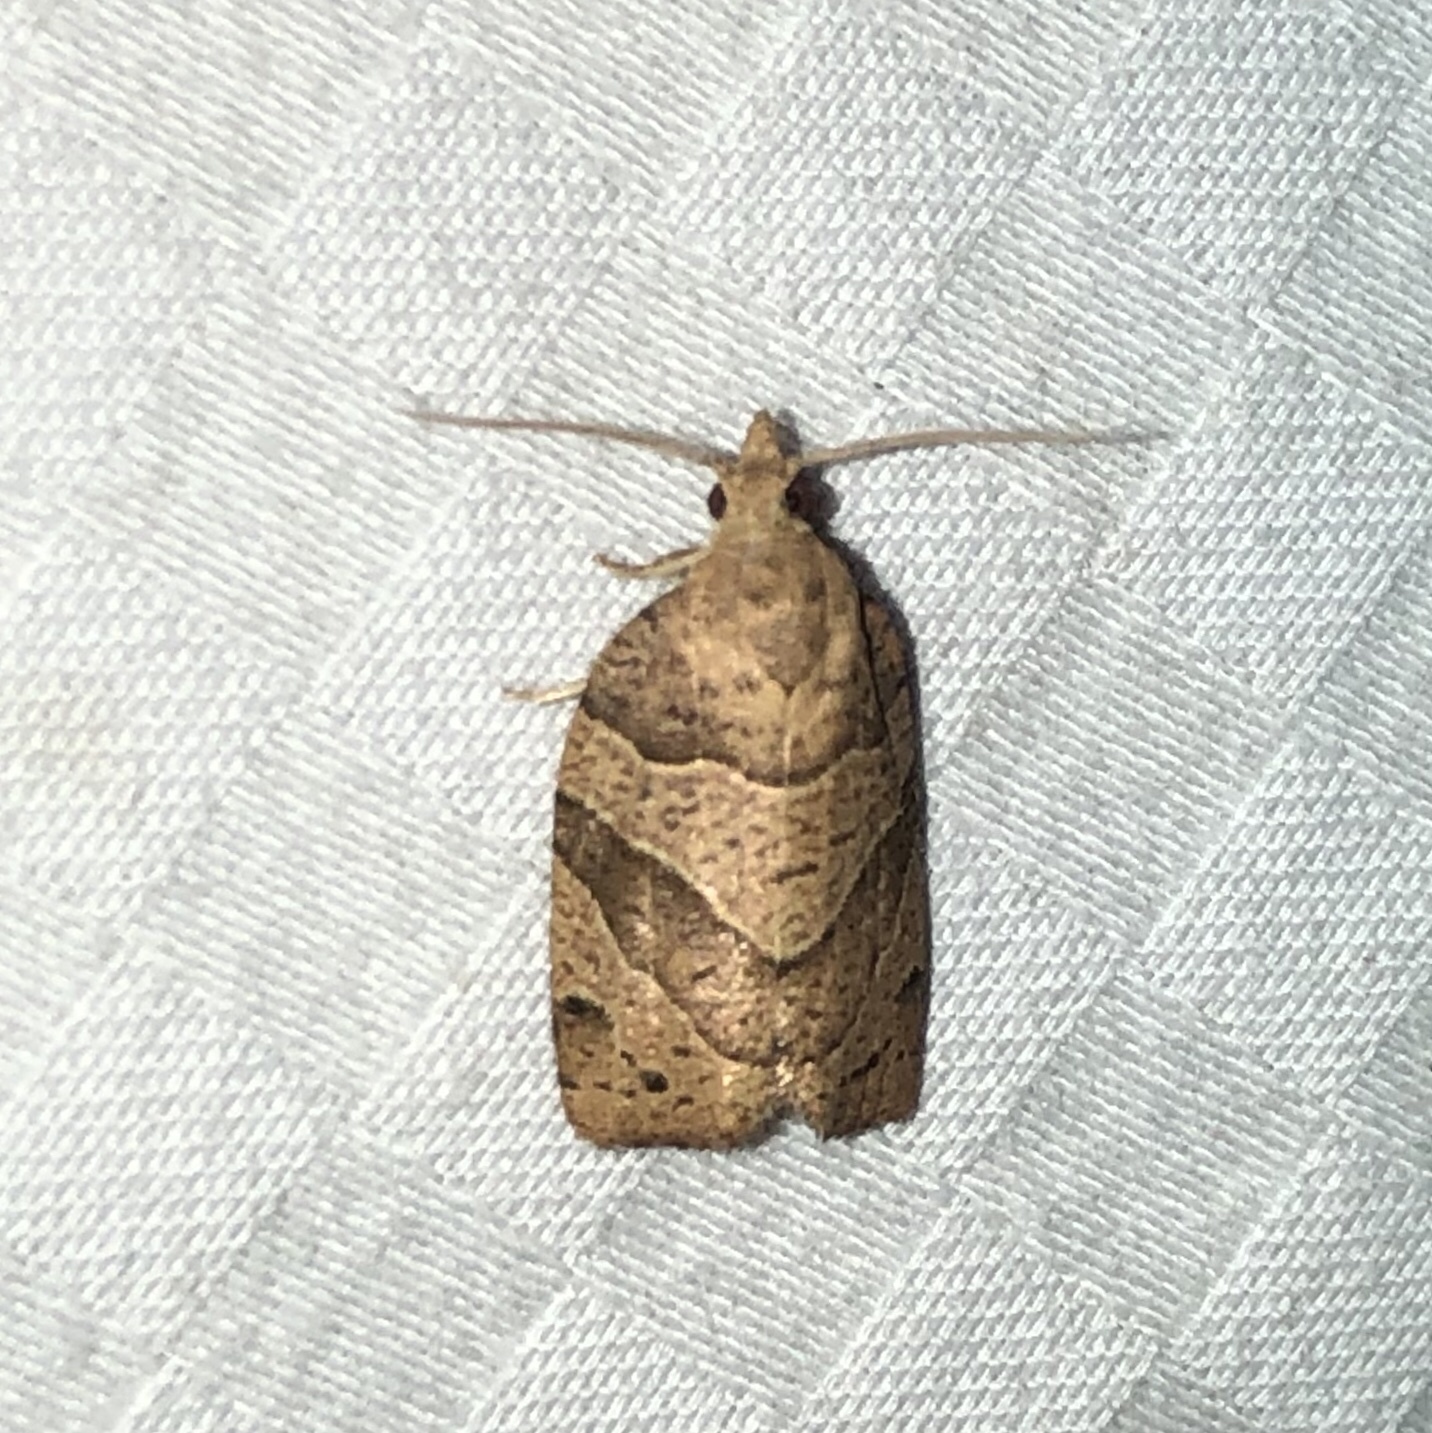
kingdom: Animalia
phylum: Arthropoda
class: Insecta
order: Lepidoptera
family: Tortricidae
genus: Pandemis
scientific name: Pandemis lamprosana
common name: Woodgrain leafroller moth
